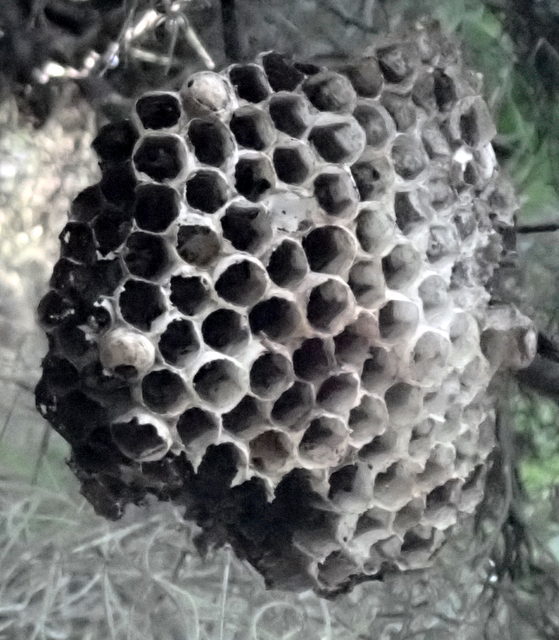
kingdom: Animalia
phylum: Arthropoda
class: Insecta
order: Hymenoptera
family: Vespidae
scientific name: Vespidae
